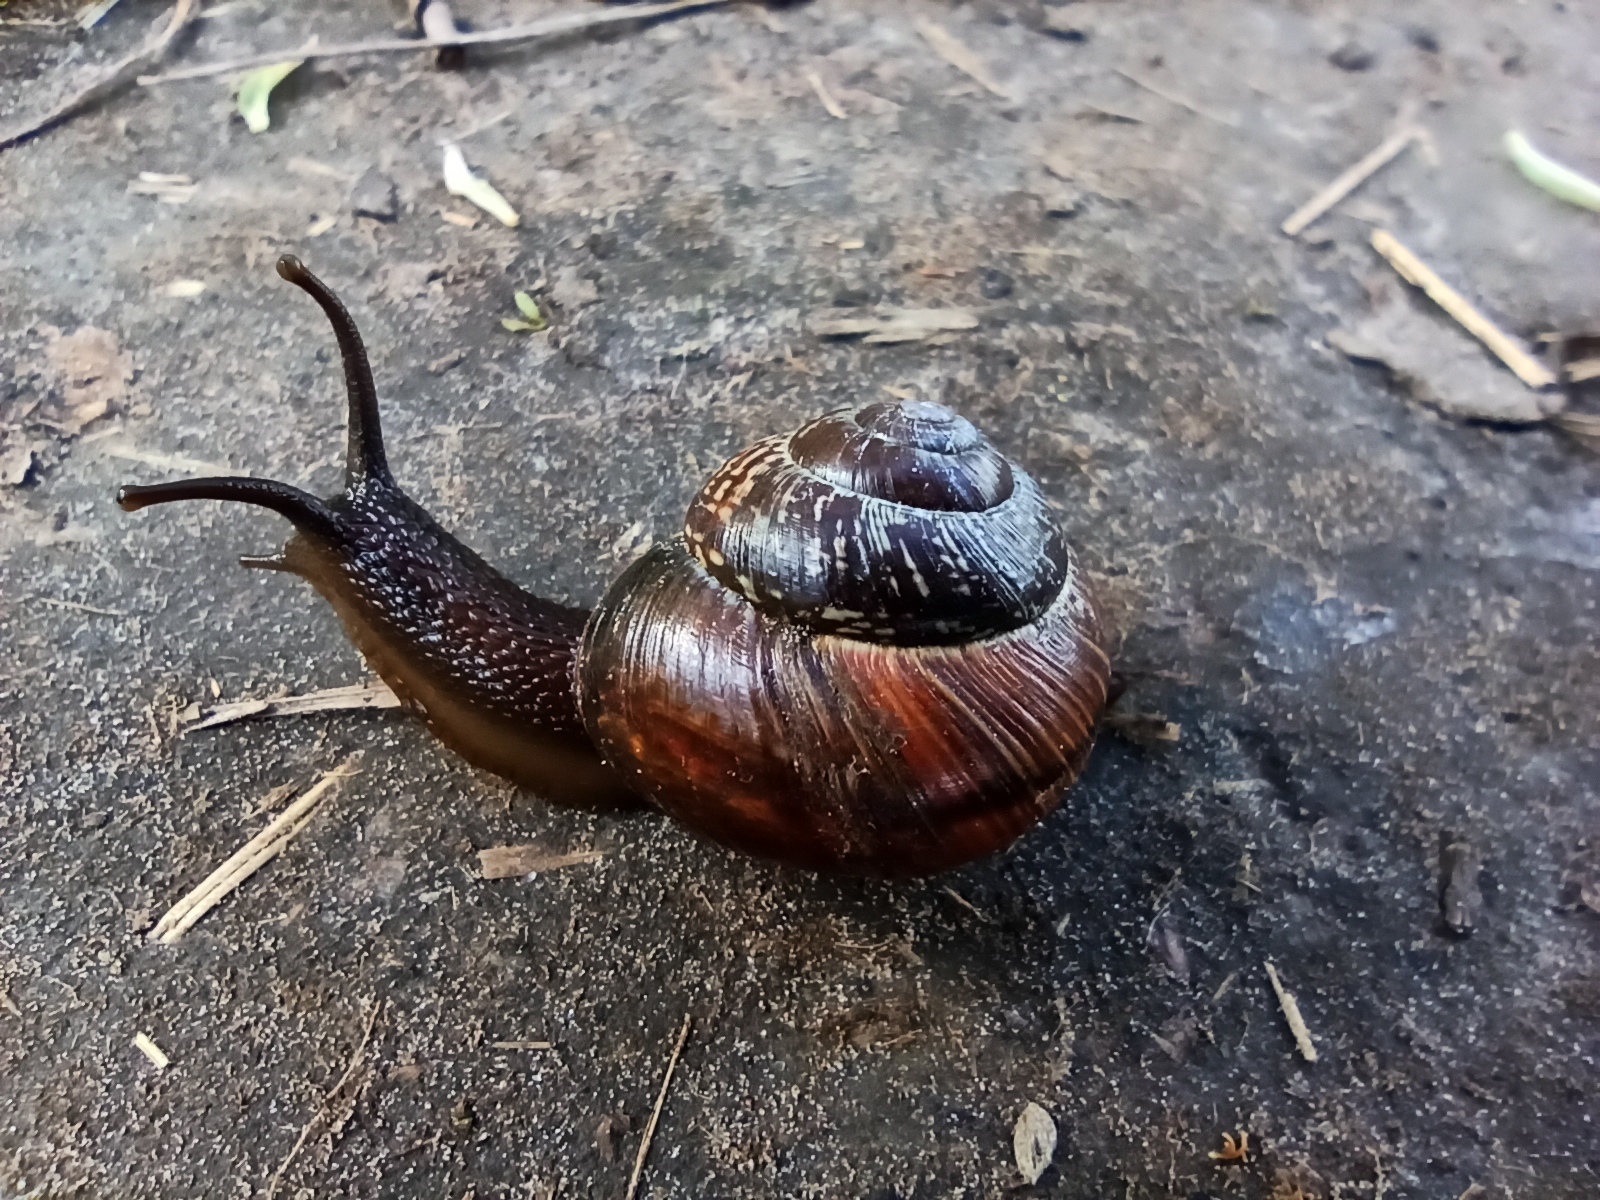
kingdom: Animalia
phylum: Mollusca
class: Gastropoda
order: Stylommatophora
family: Helicidae
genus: Arianta
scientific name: Arianta arbustorum
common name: Copse snail
